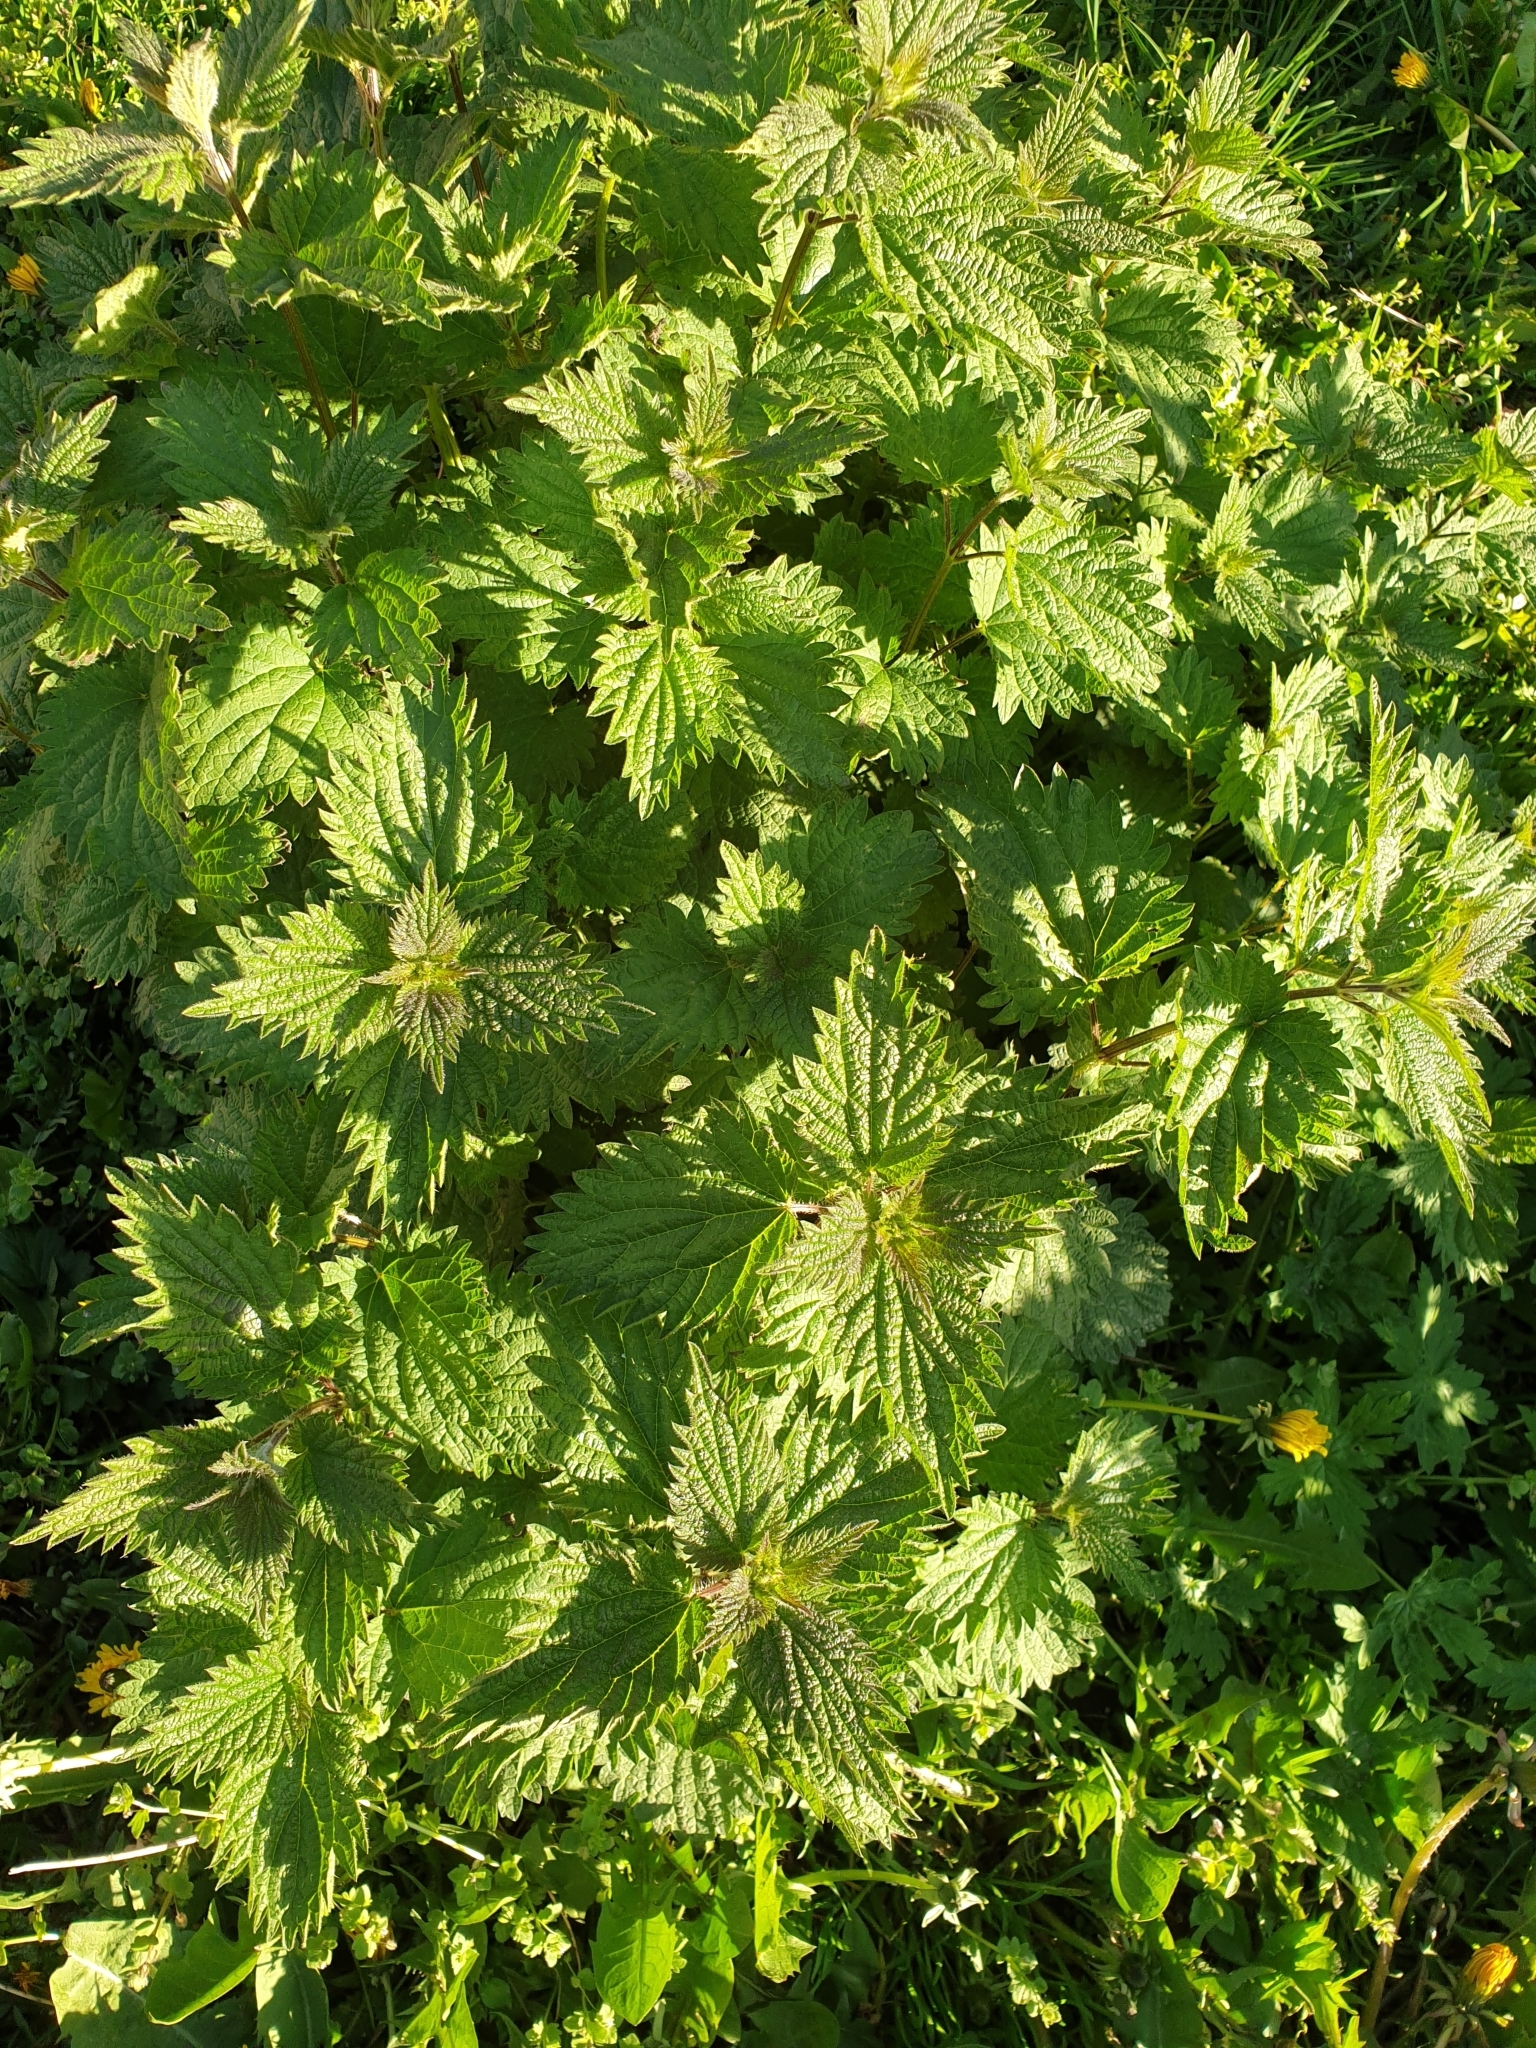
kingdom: Plantae
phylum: Tracheophyta
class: Magnoliopsida
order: Rosales
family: Urticaceae
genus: Urtica
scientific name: Urtica dioica
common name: Common nettle
